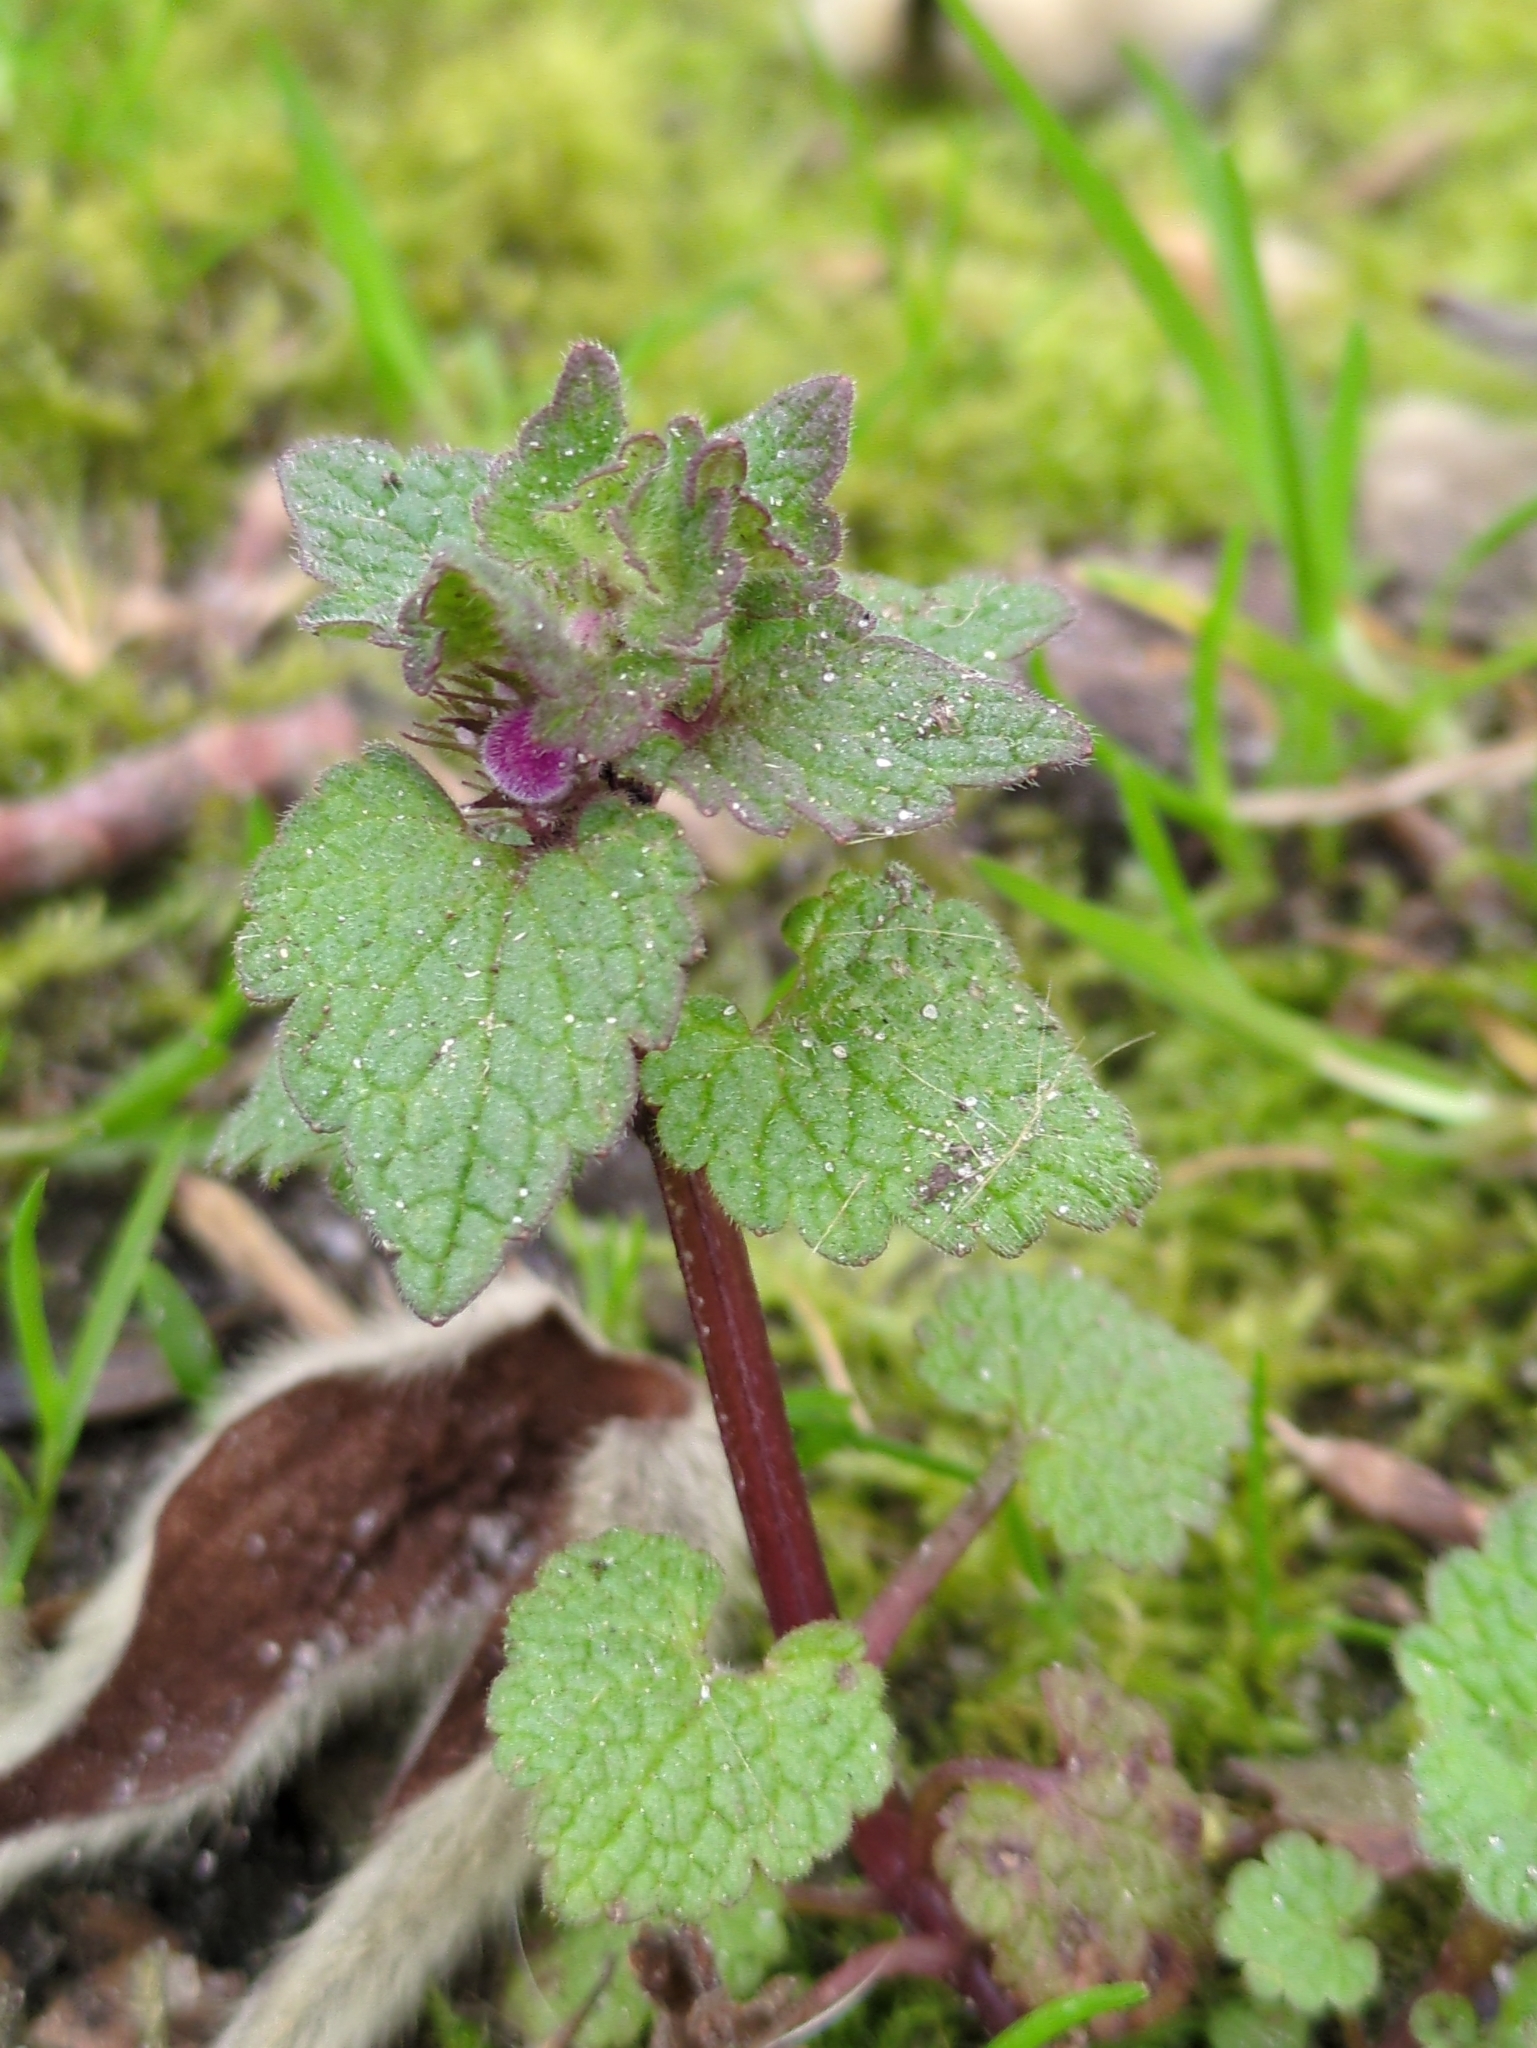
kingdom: Plantae
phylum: Tracheophyta
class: Magnoliopsida
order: Lamiales
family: Lamiaceae
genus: Lamium
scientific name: Lamium purpureum
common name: Red dead-nettle
